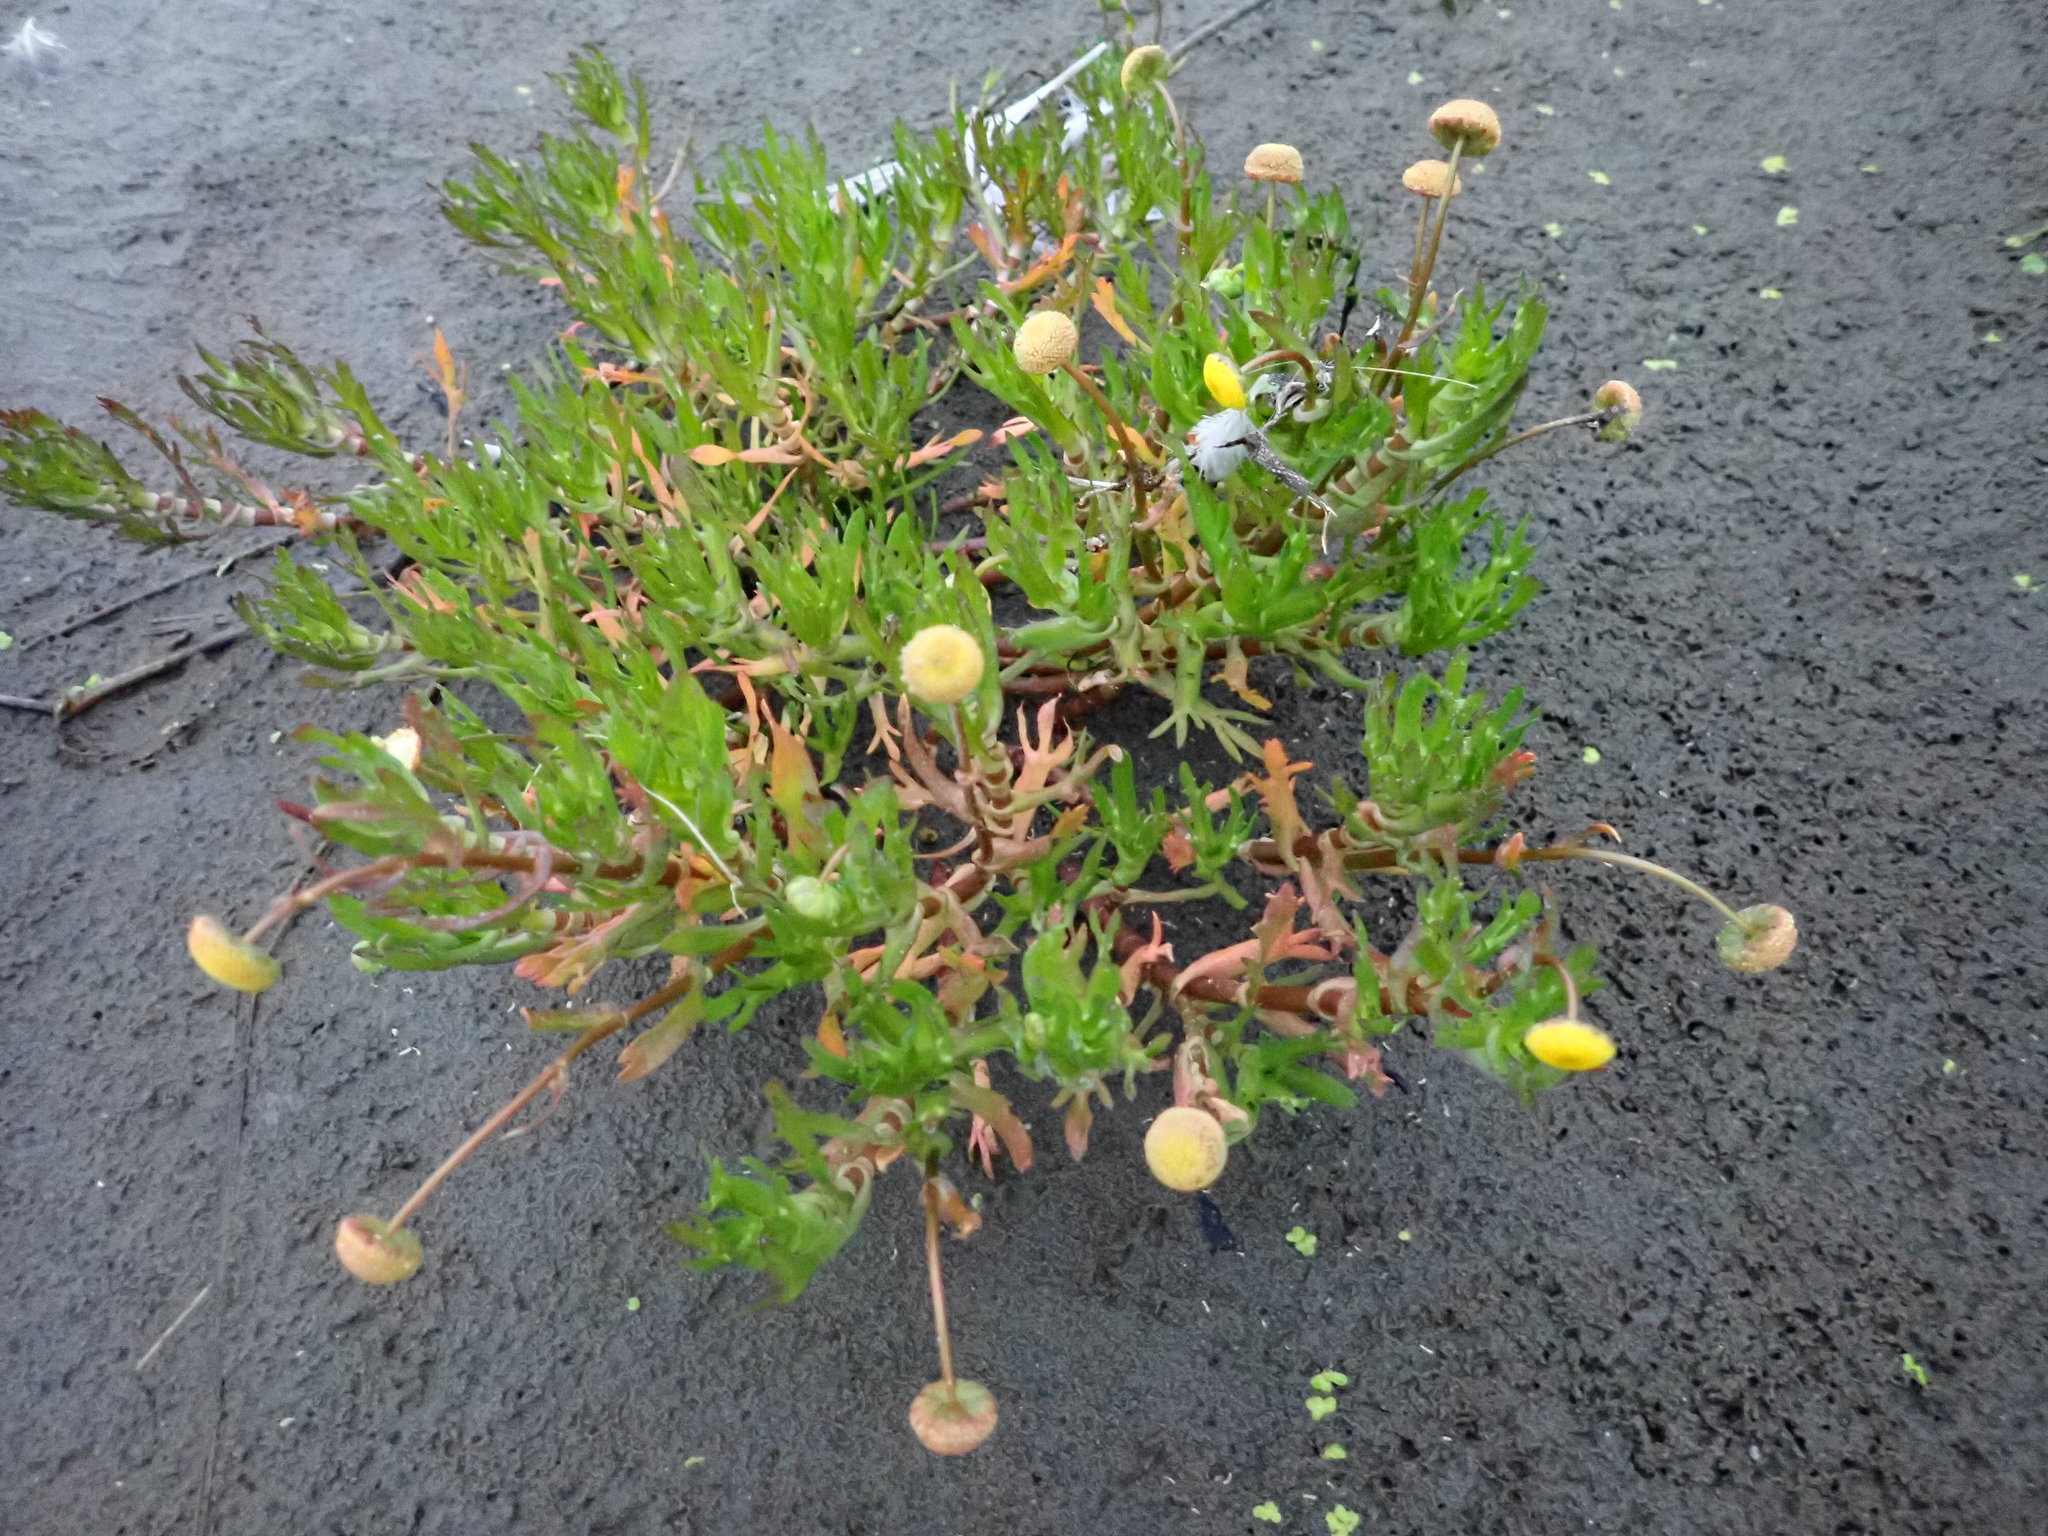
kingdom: Plantae
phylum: Tracheophyta
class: Magnoliopsida
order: Asterales
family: Asteraceae
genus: Cotula
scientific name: Cotula coronopifolia
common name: Buttonweed
